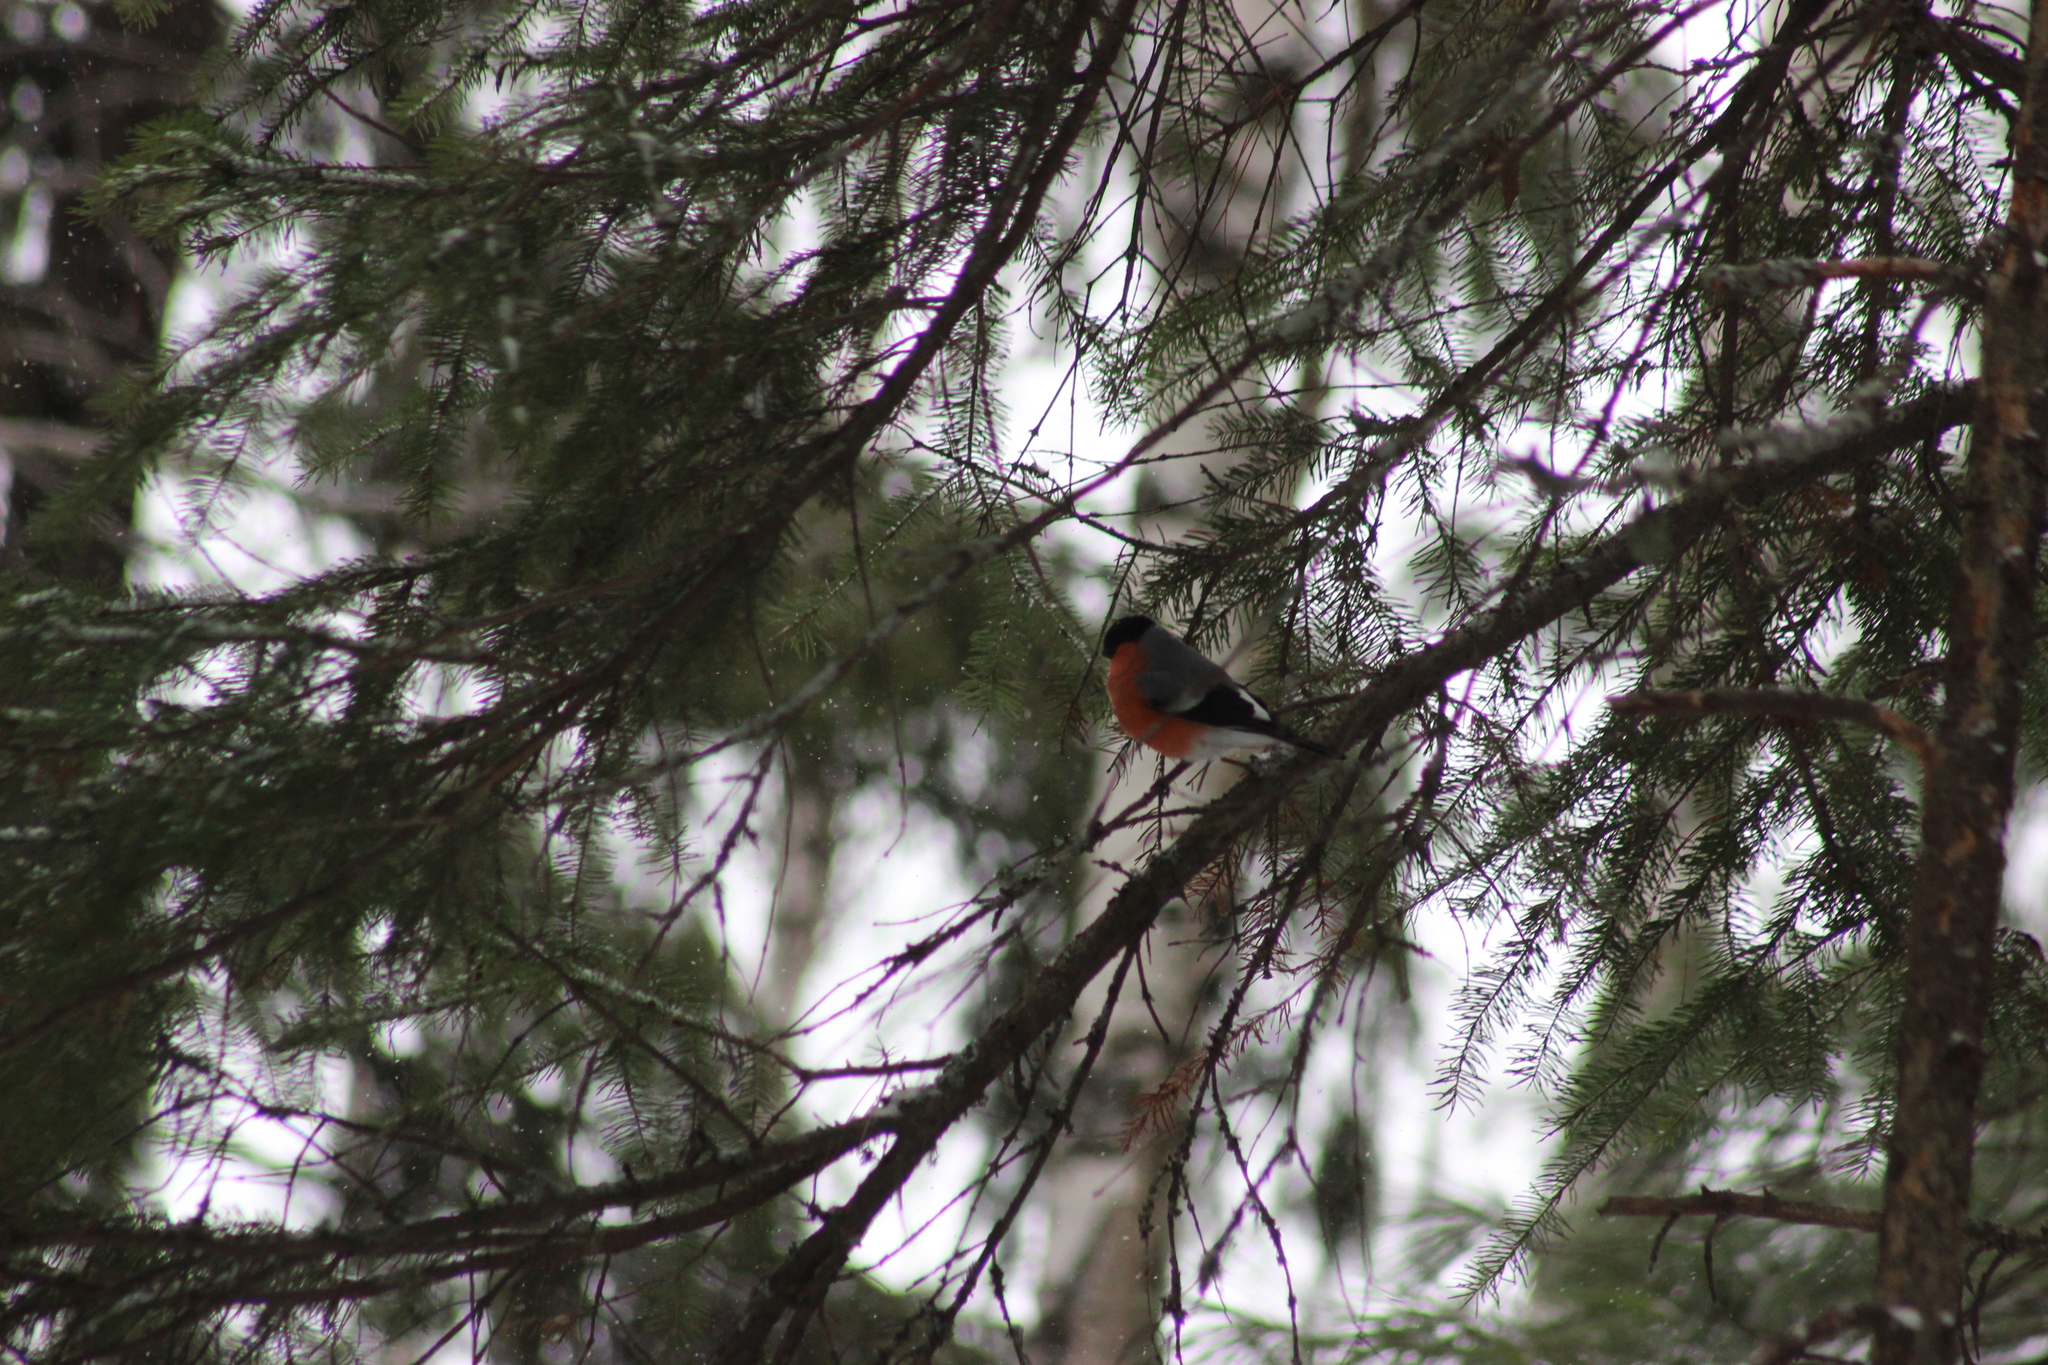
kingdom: Animalia
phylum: Chordata
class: Aves
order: Passeriformes
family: Fringillidae
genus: Pyrrhula
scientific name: Pyrrhula pyrrhula
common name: Eurasian bullfinch
